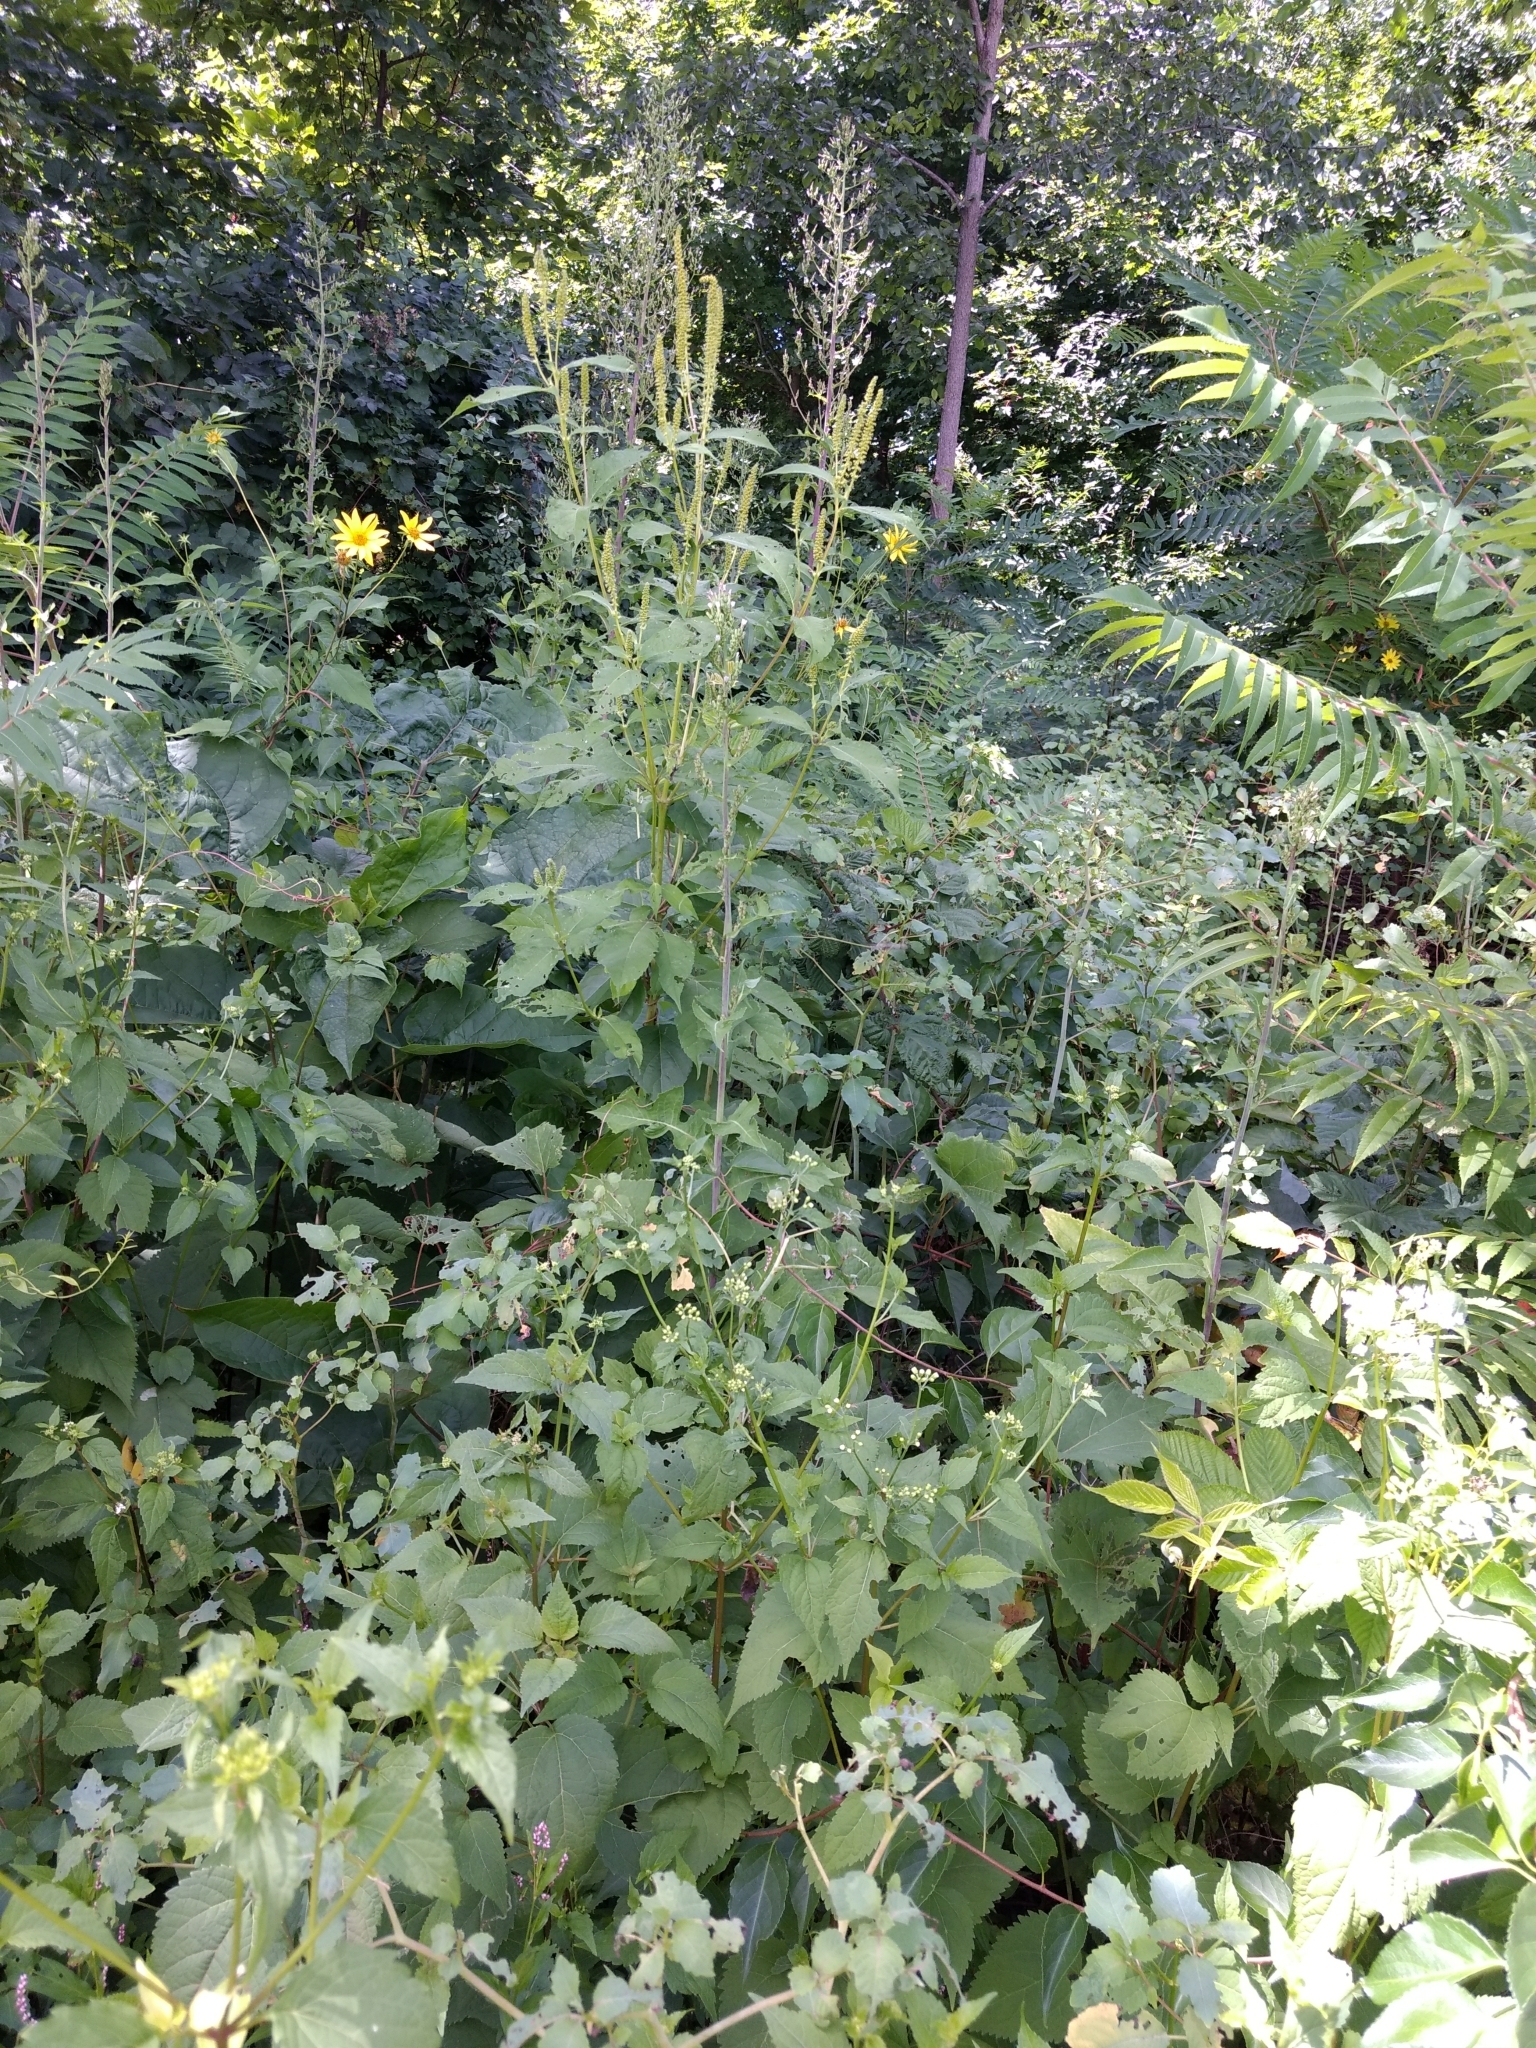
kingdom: Plantae
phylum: Tracheophyta
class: Magnoliopsida
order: Asterales
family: Asteraceae
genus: Ambrosia
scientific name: Ambrosia trifida
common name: Giant ragweed
